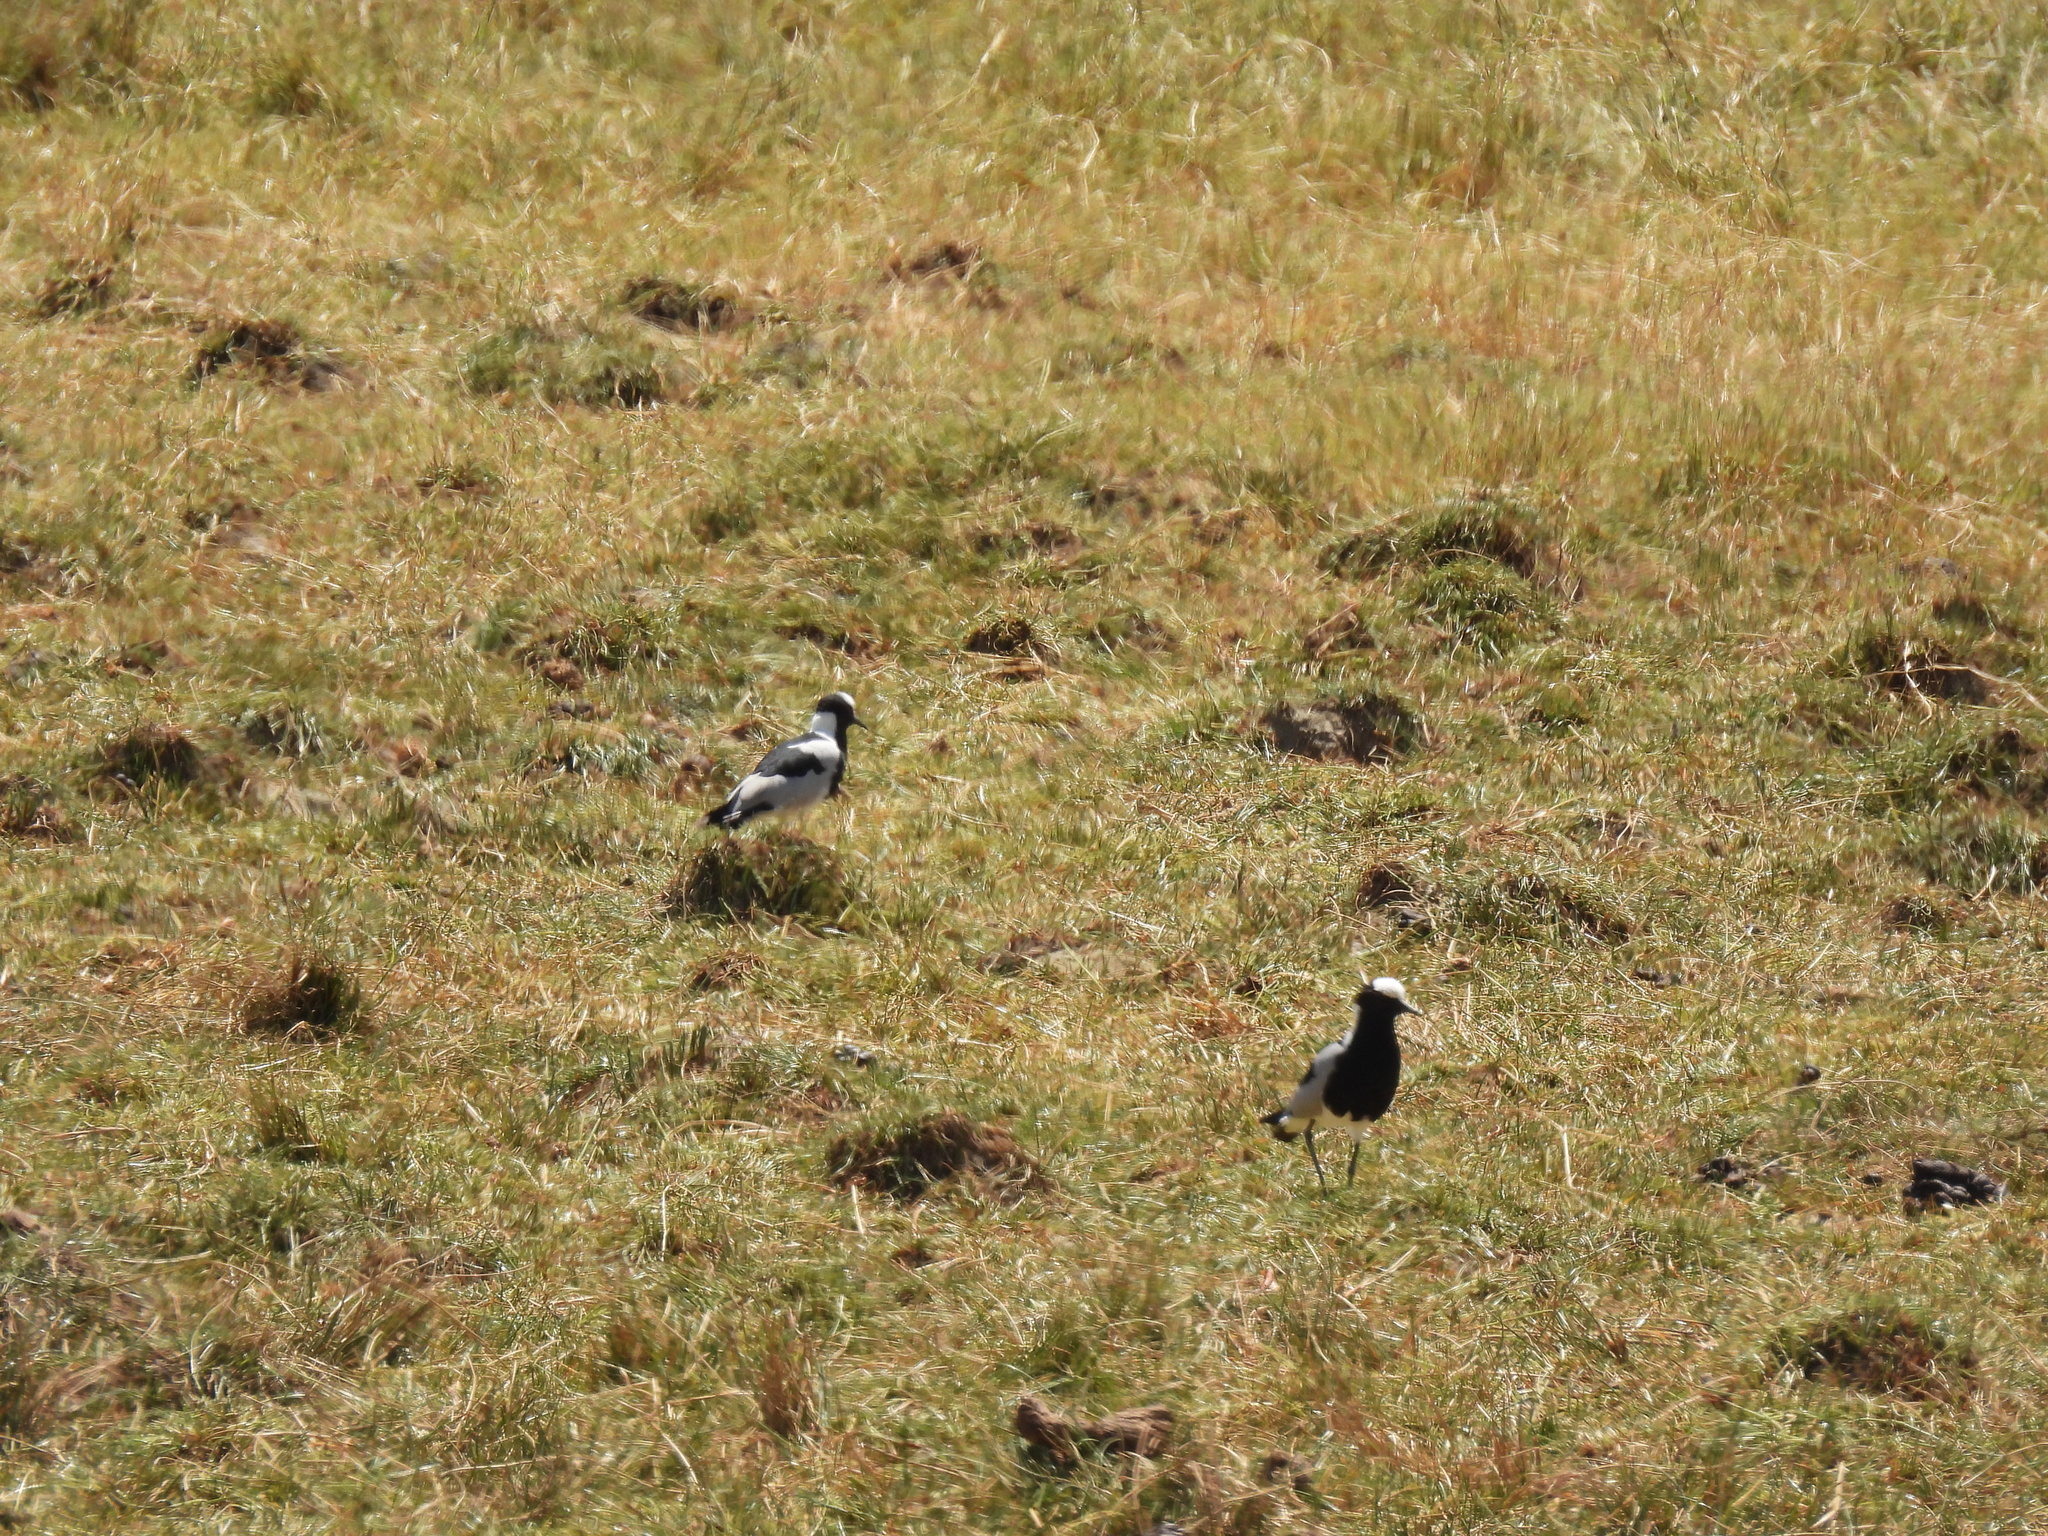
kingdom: Animalia
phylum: Chordata
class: Aves
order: Charadriiformes
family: Charadriidae
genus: Vanellus
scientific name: Vanellus armatus
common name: Blacksmith lapwing
